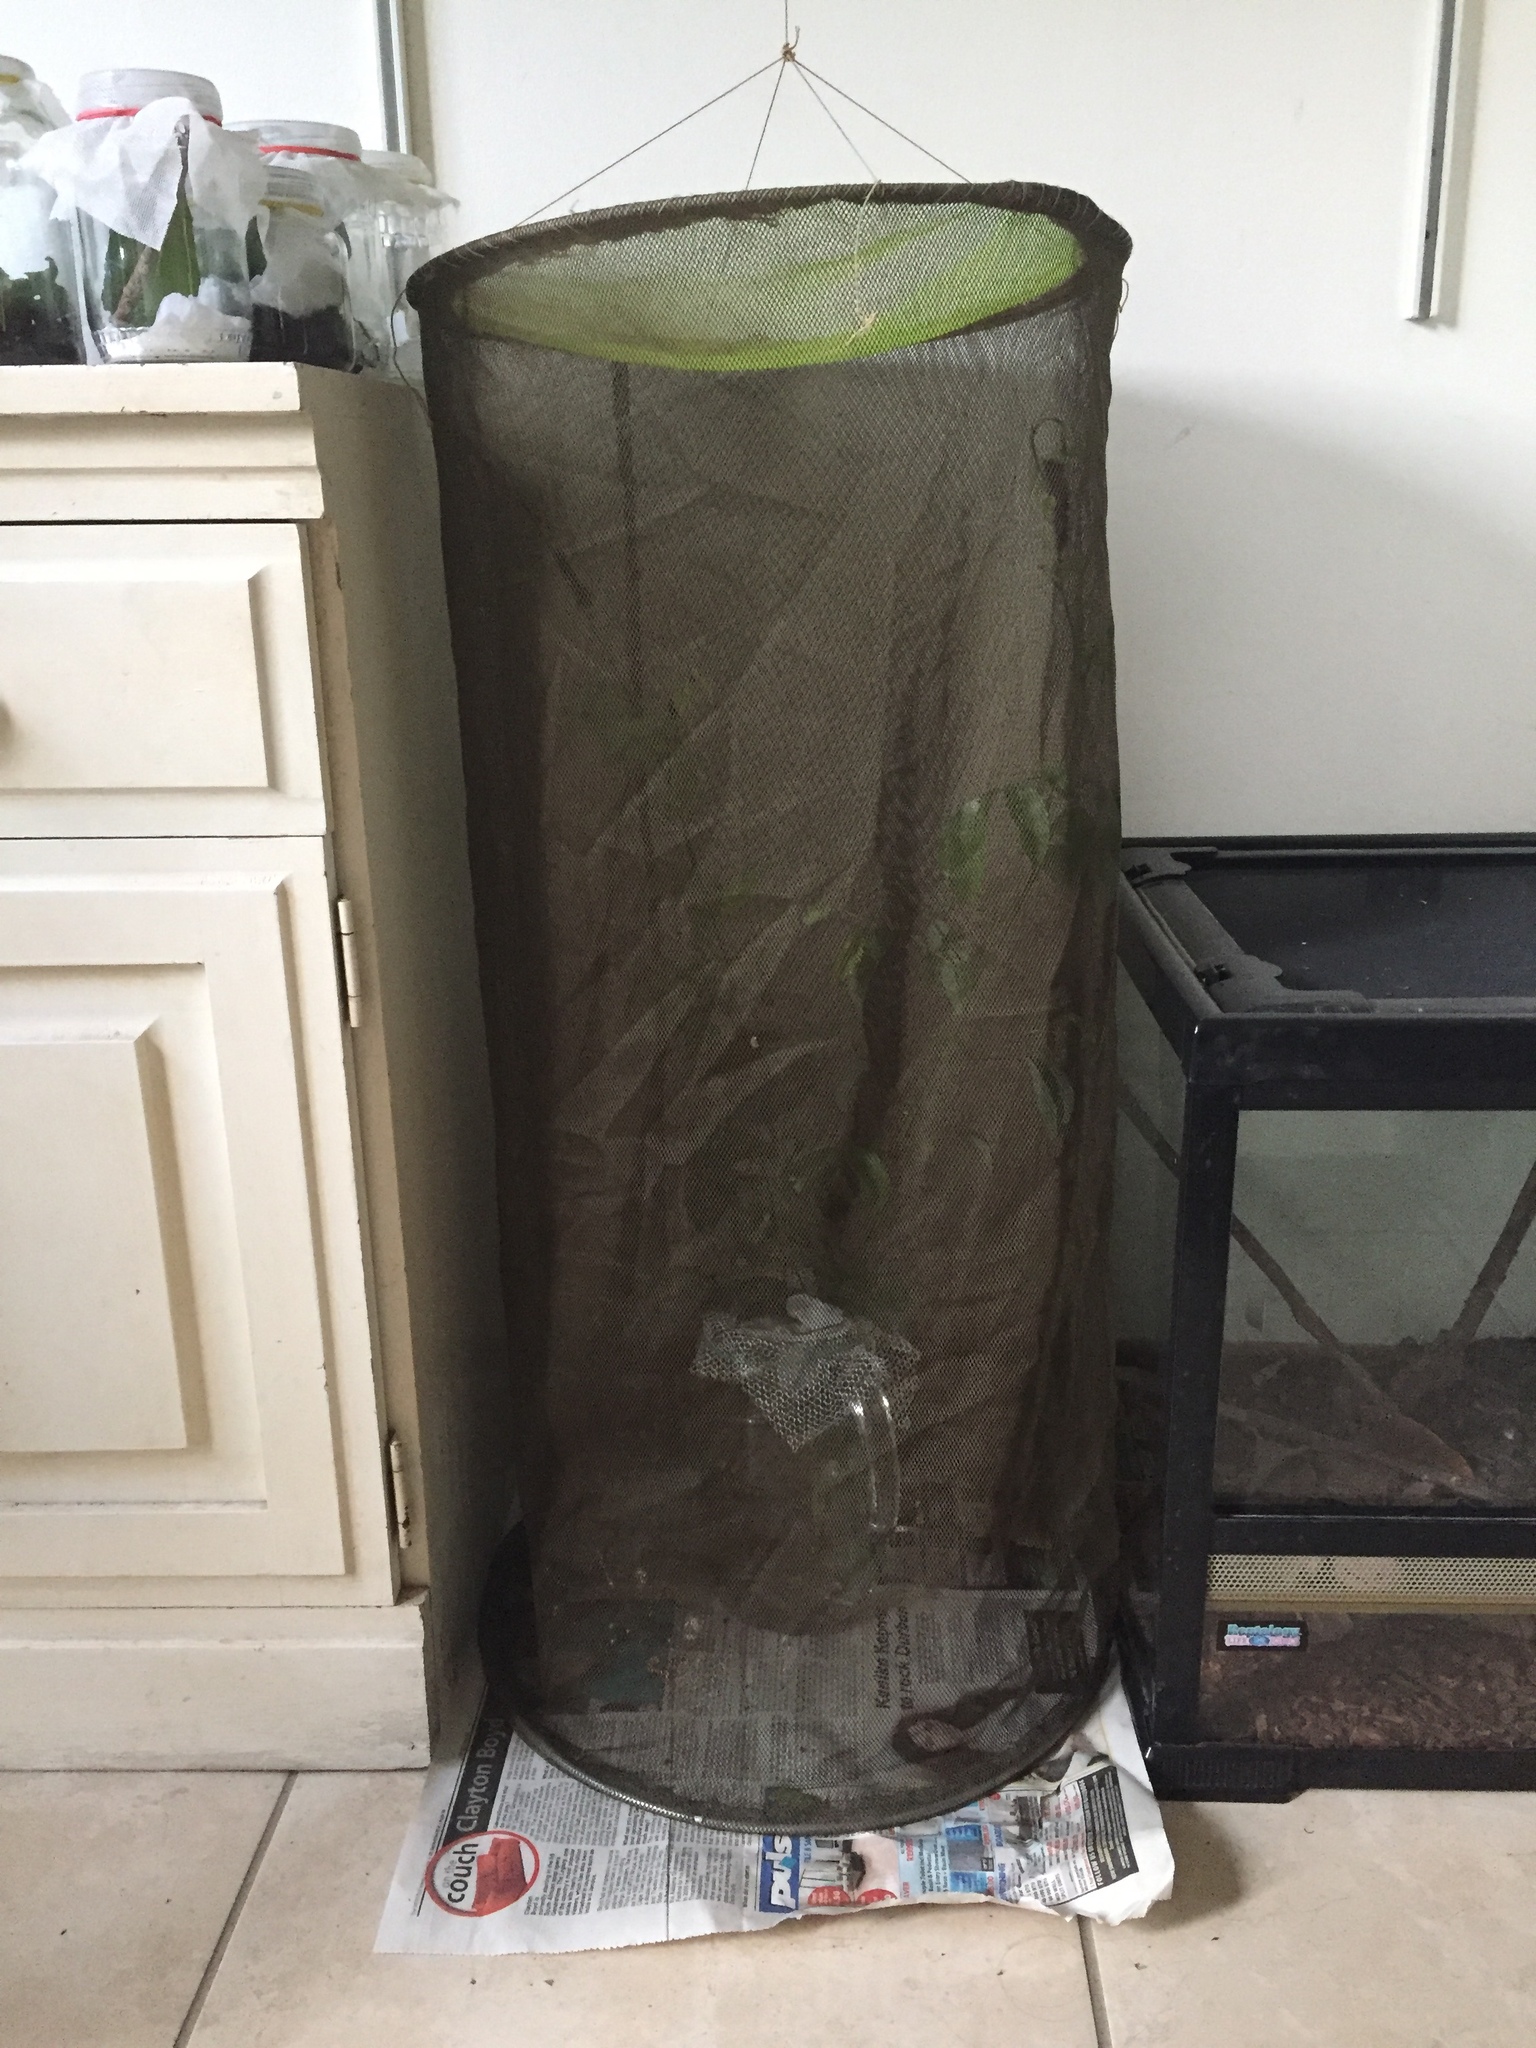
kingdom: Animalia
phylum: Arthropoda
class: Insecta
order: Lepidoptera
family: Lasiocampidae
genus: Catalebeda
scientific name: Catalebeda cuneilinea
